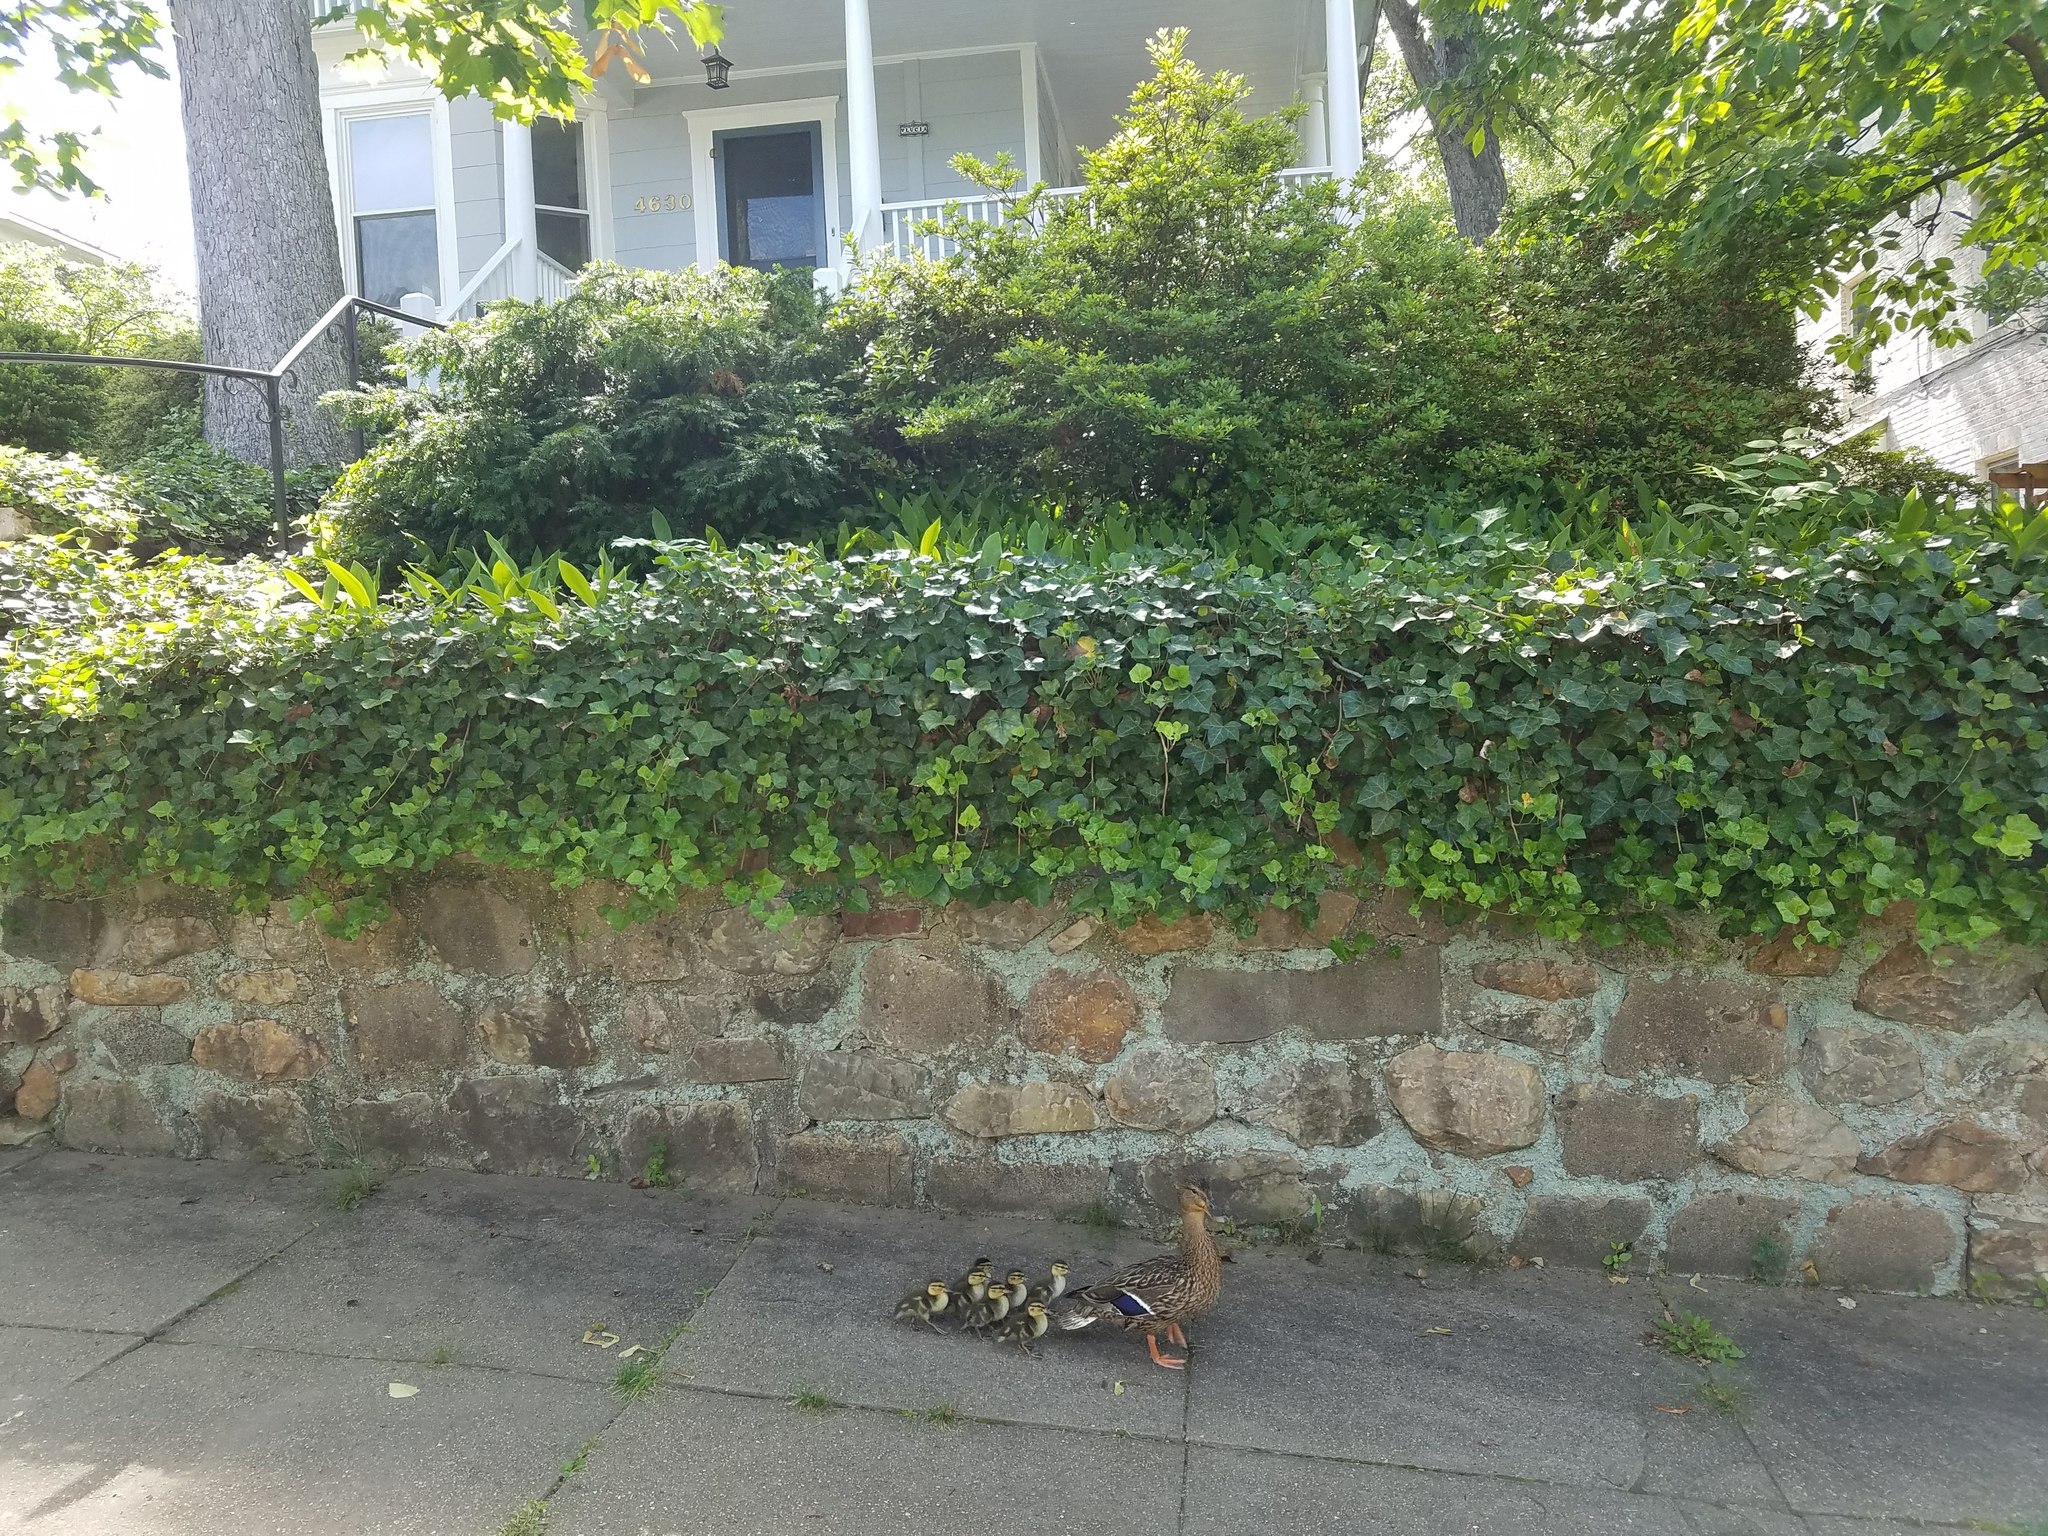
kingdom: Animalia
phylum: Chordata
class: Aves
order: Anseriformes
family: Anatidae
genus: Anas
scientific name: Anas platyrhynchos
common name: Mallard
